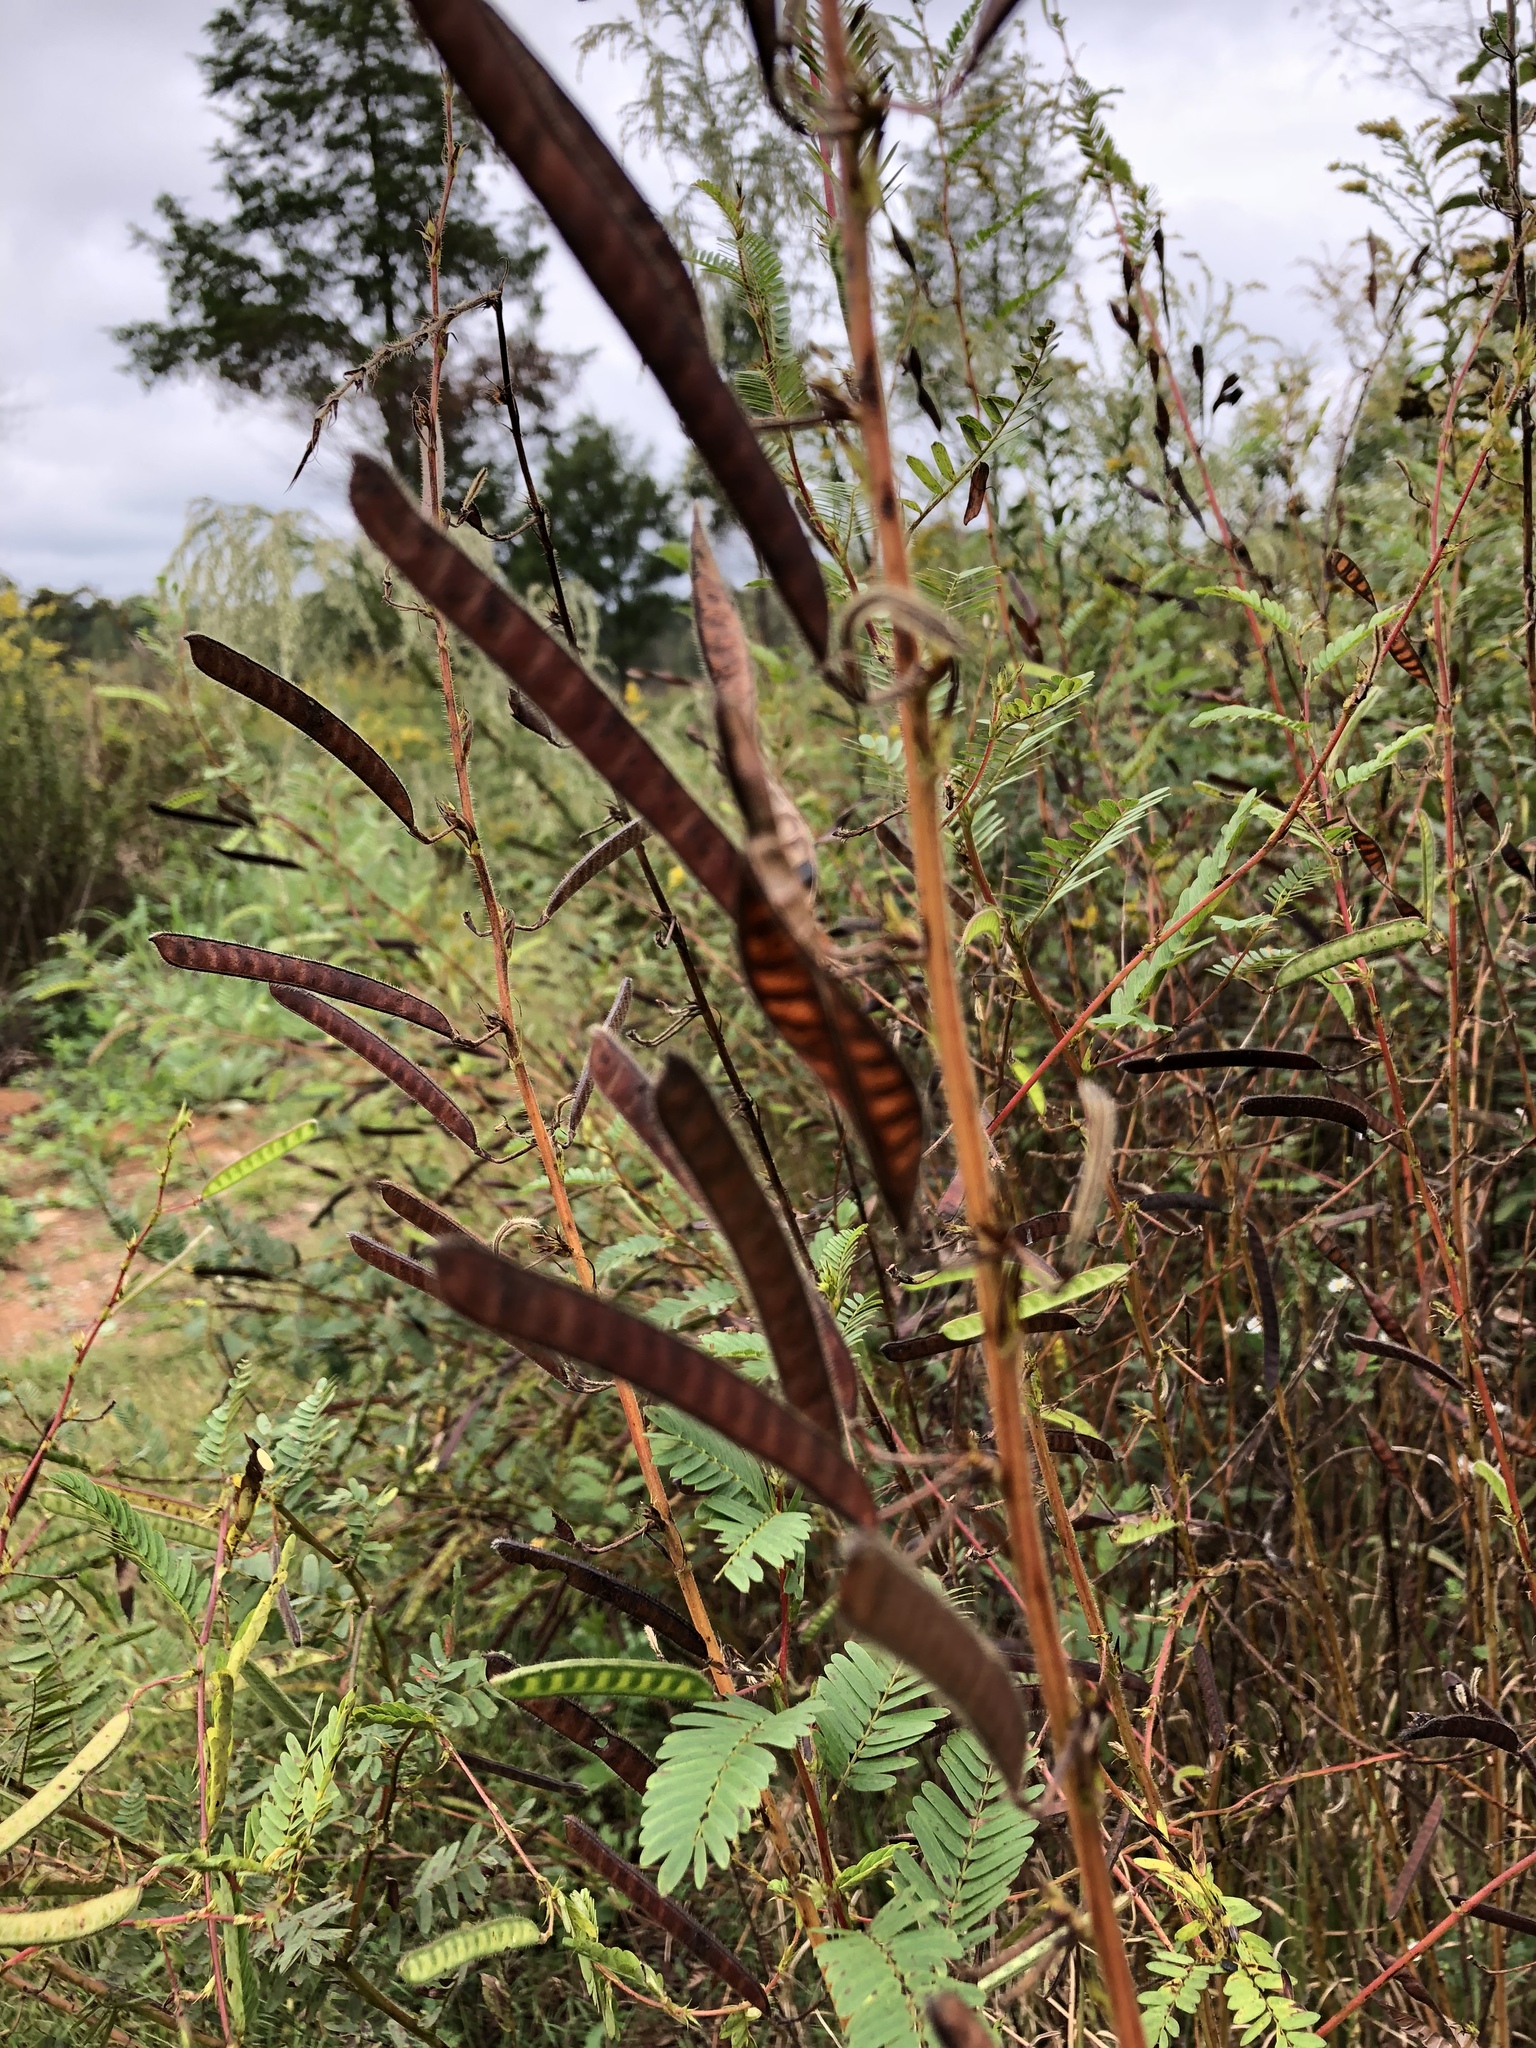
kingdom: Plantae
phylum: Tracheophyta
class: Magnoliopsida
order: Fabales
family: Fabaceae
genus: Chamaecrista
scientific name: Chamaecrista fasciculata
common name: Golden cassia
